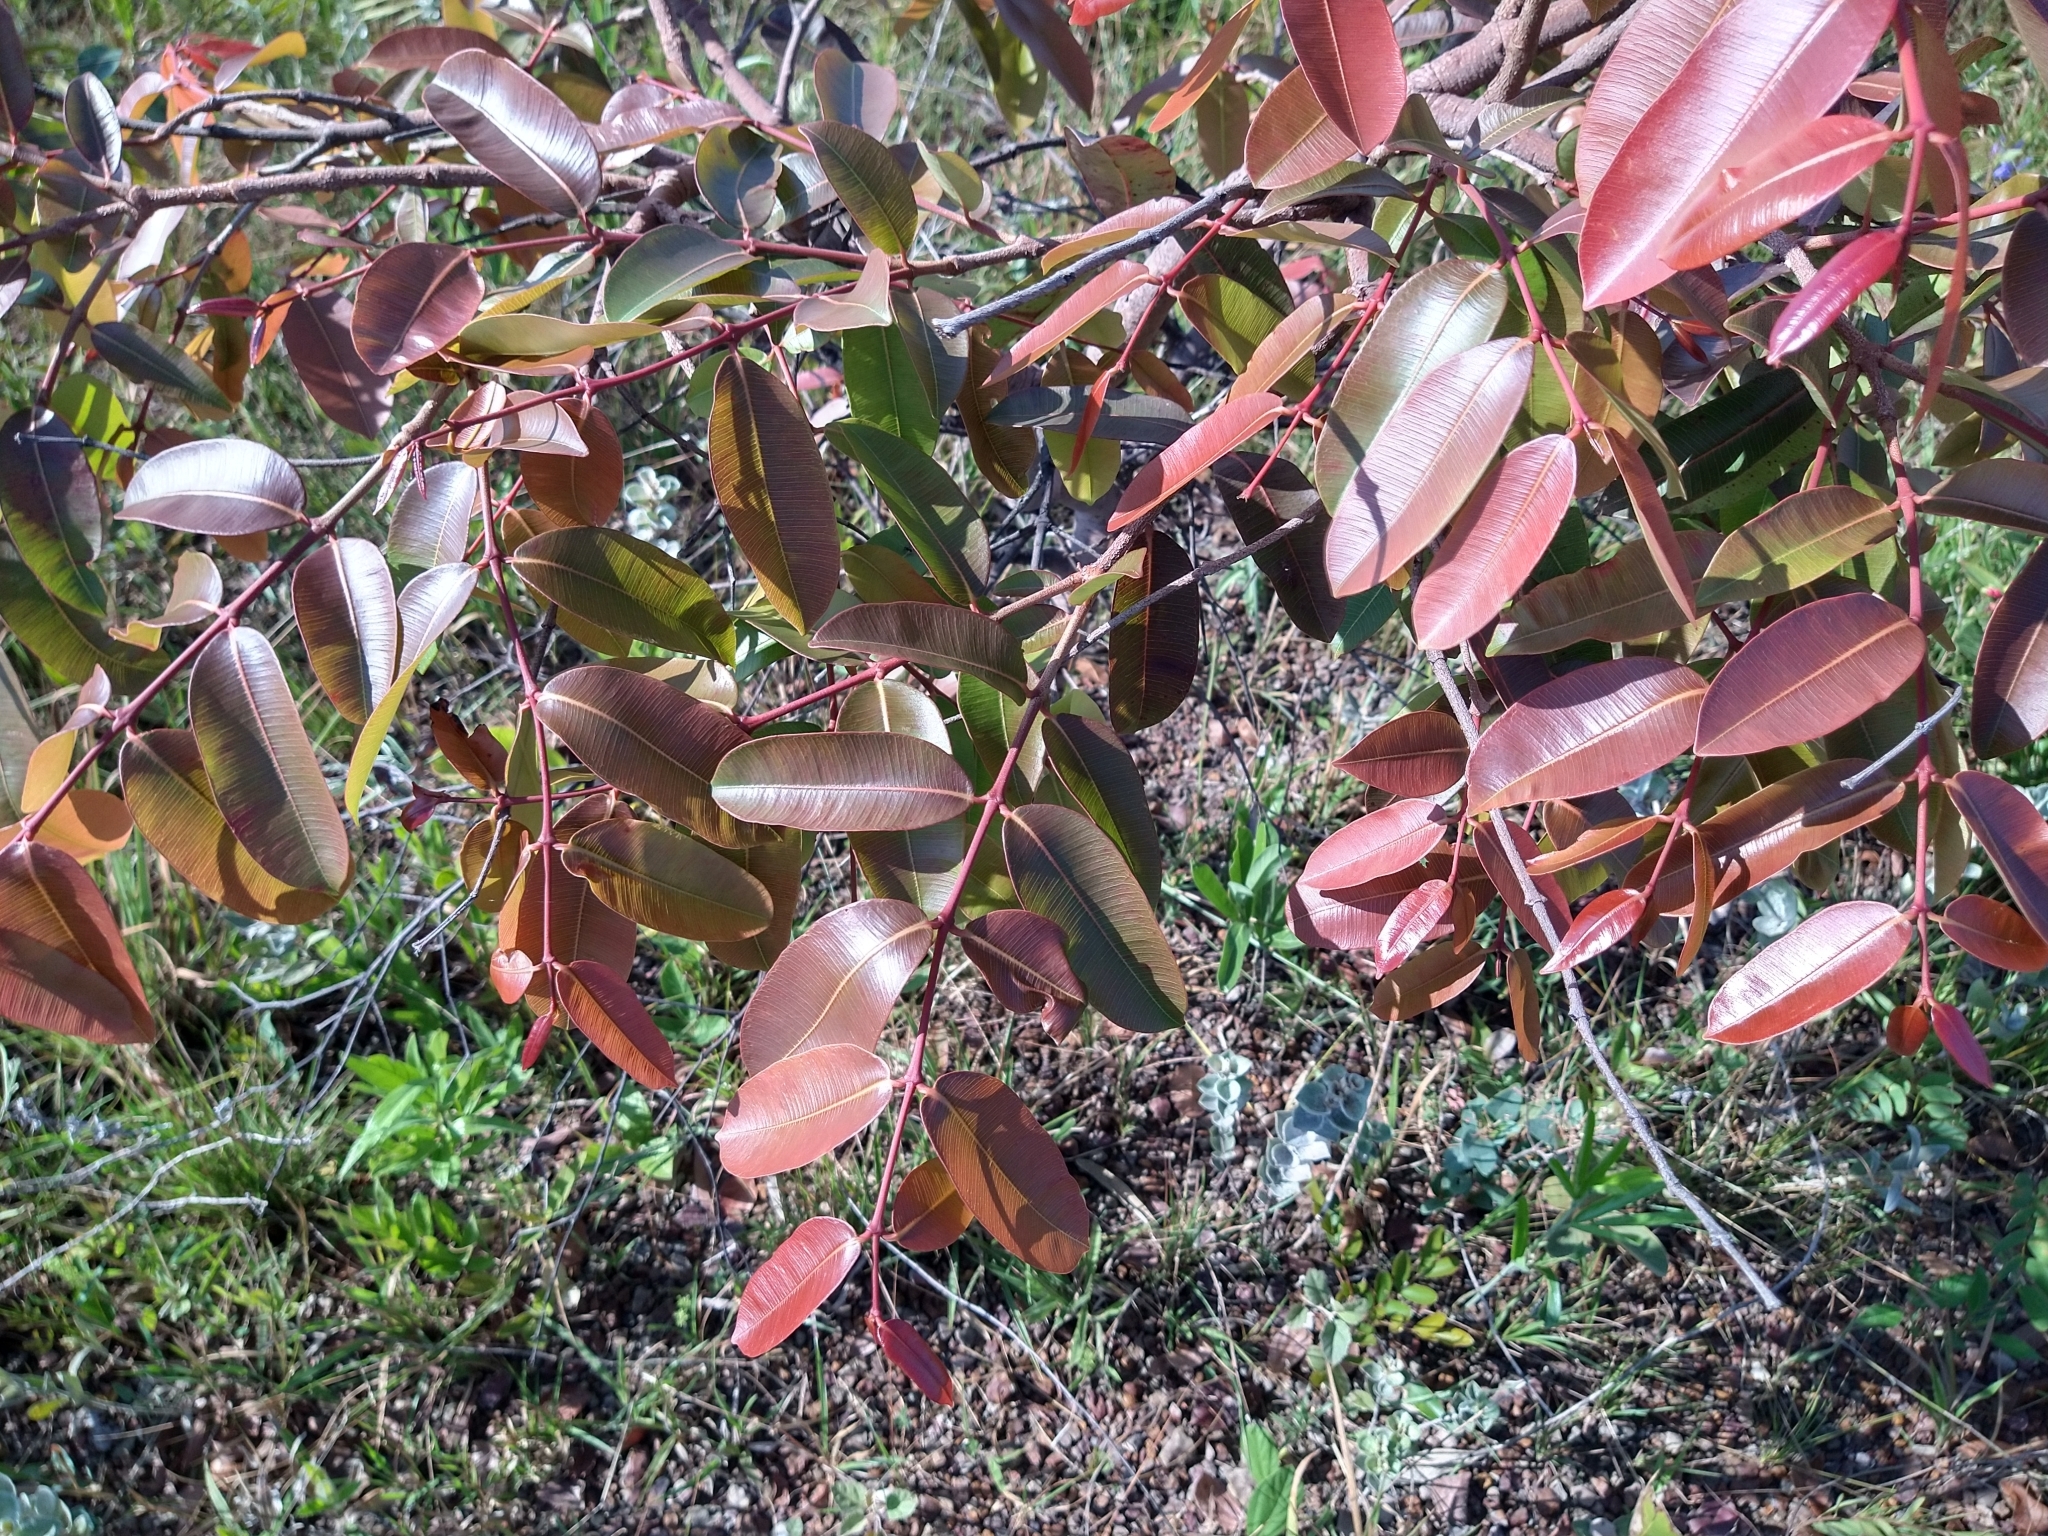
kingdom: Plantae
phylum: Tracheophyta
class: Magnoliopsida
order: Gentianales
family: Apocynaceae
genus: Hancornia
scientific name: Hancornia speciosa
